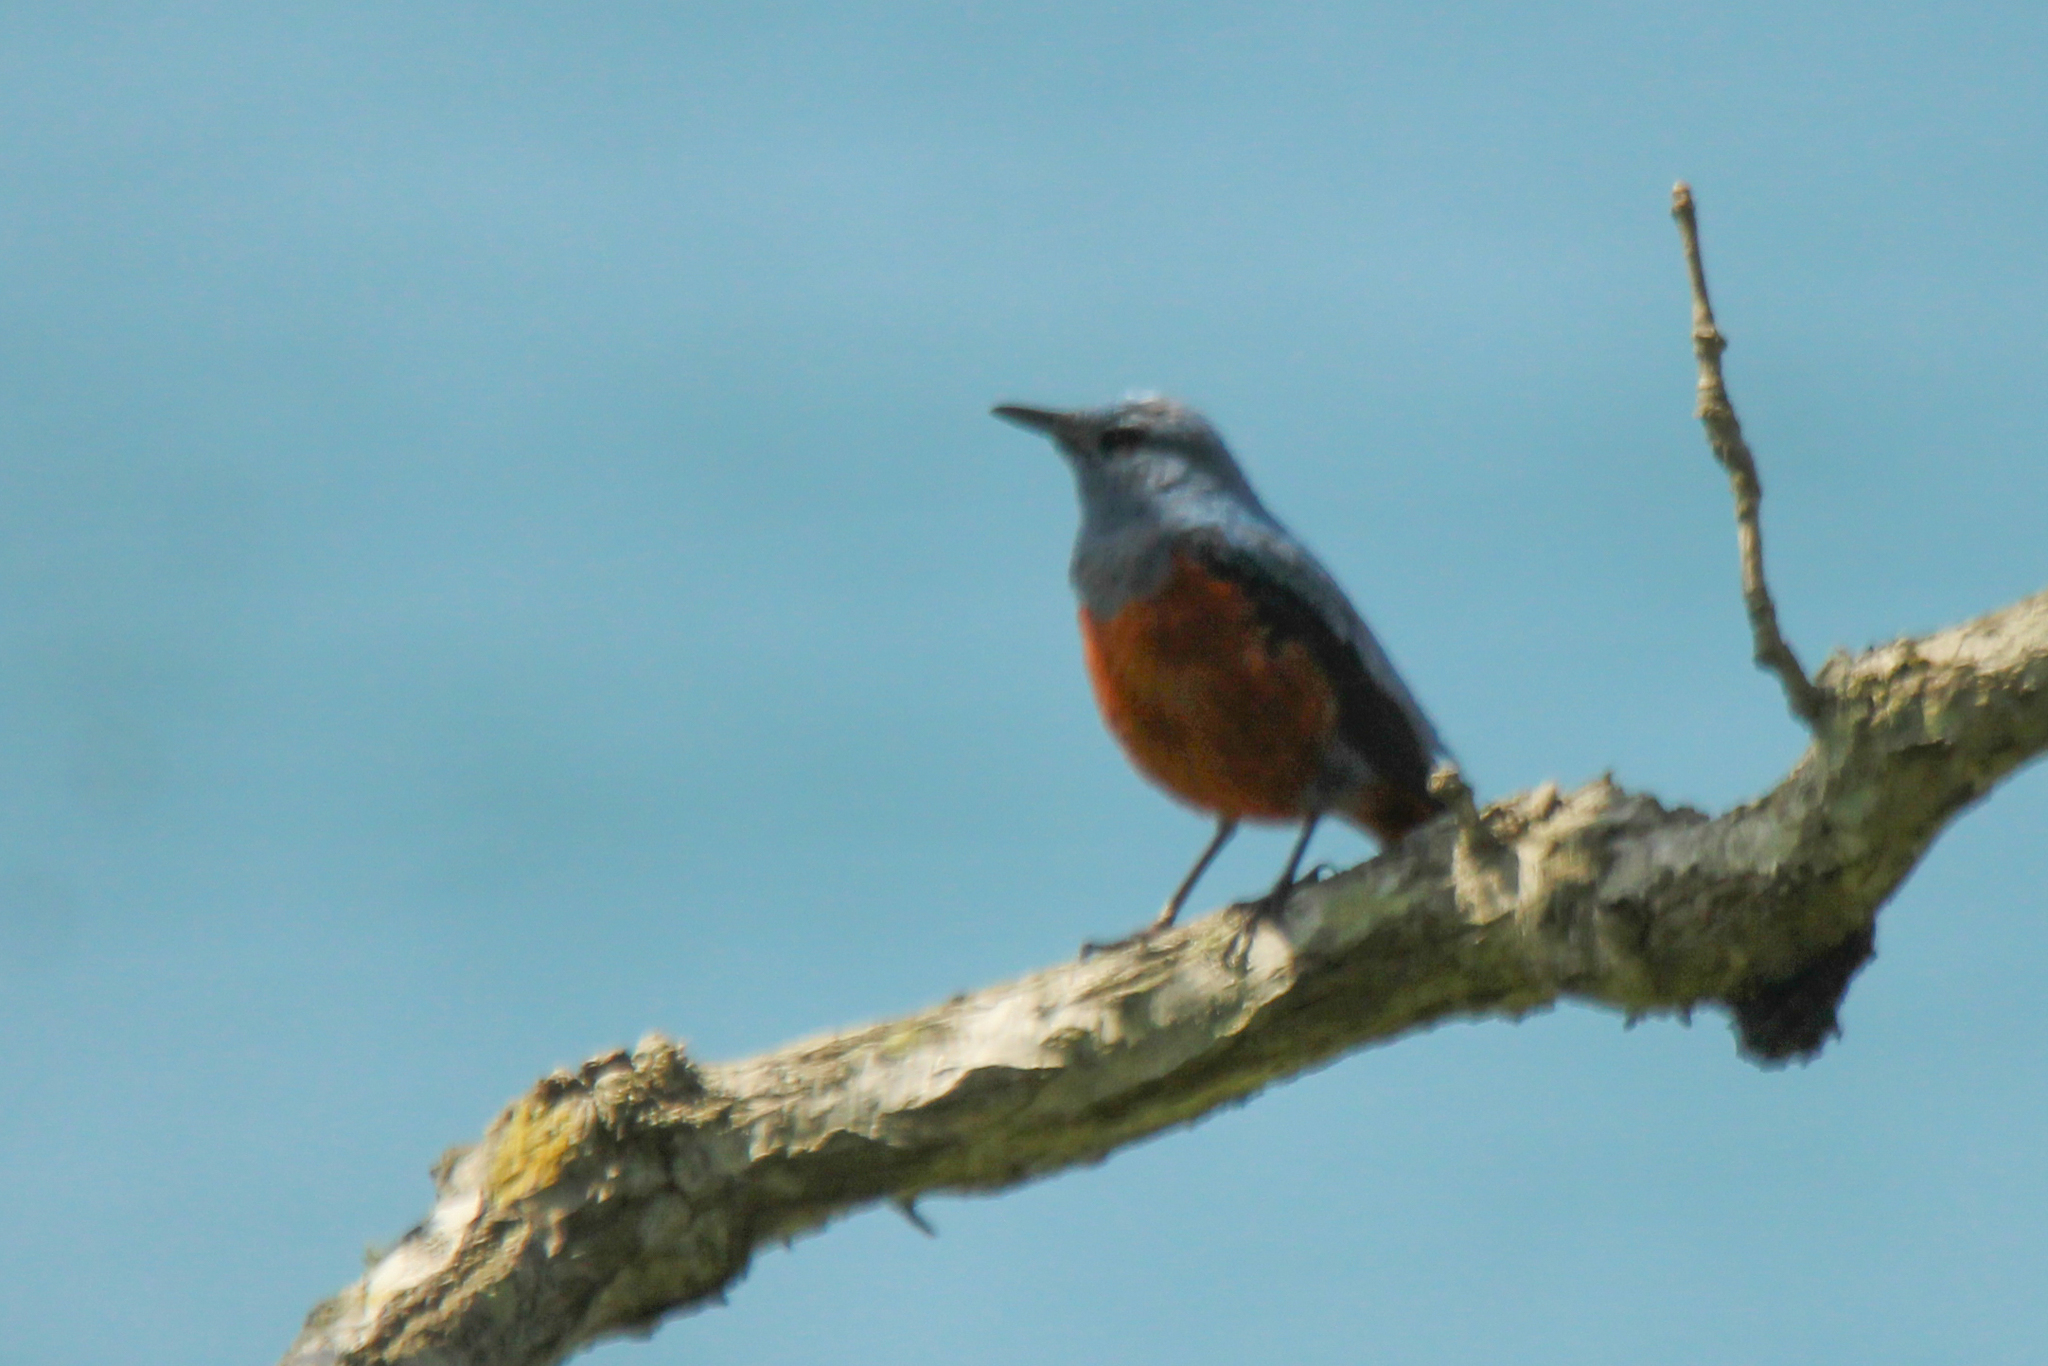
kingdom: Animalia
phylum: Chordata
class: Aves
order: Passeriformes
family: Muscicapidae
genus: Monticola
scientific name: Monticola solitarius
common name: Blue rock thrush
